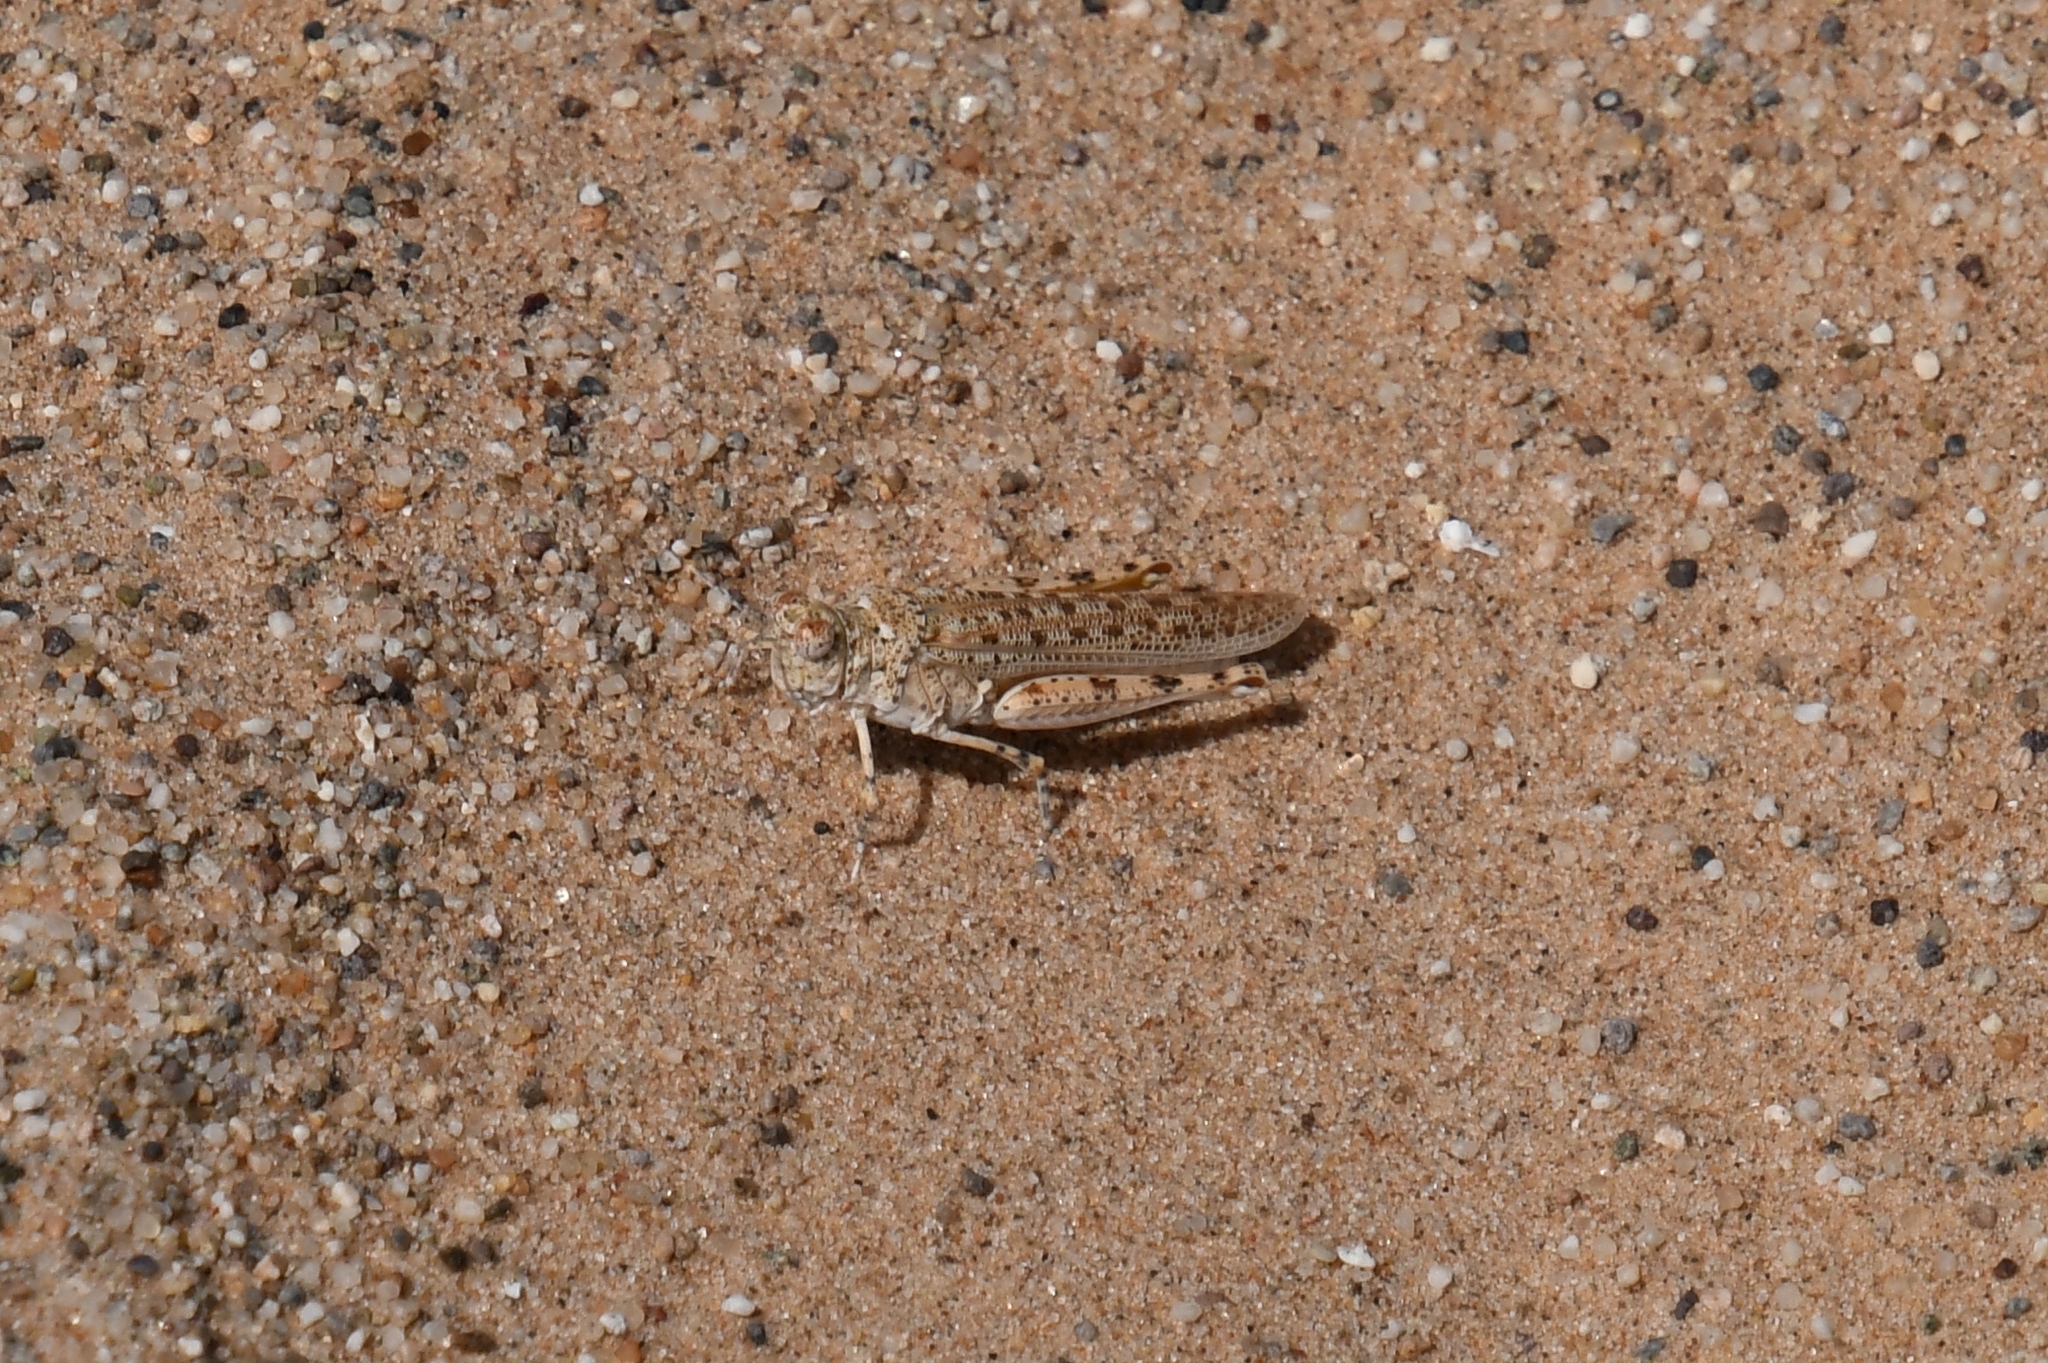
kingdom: Animalia
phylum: Arthropoda
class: Insecta
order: Orthoptera
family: Acrididae
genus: Xeracris
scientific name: Xeracris snowi
